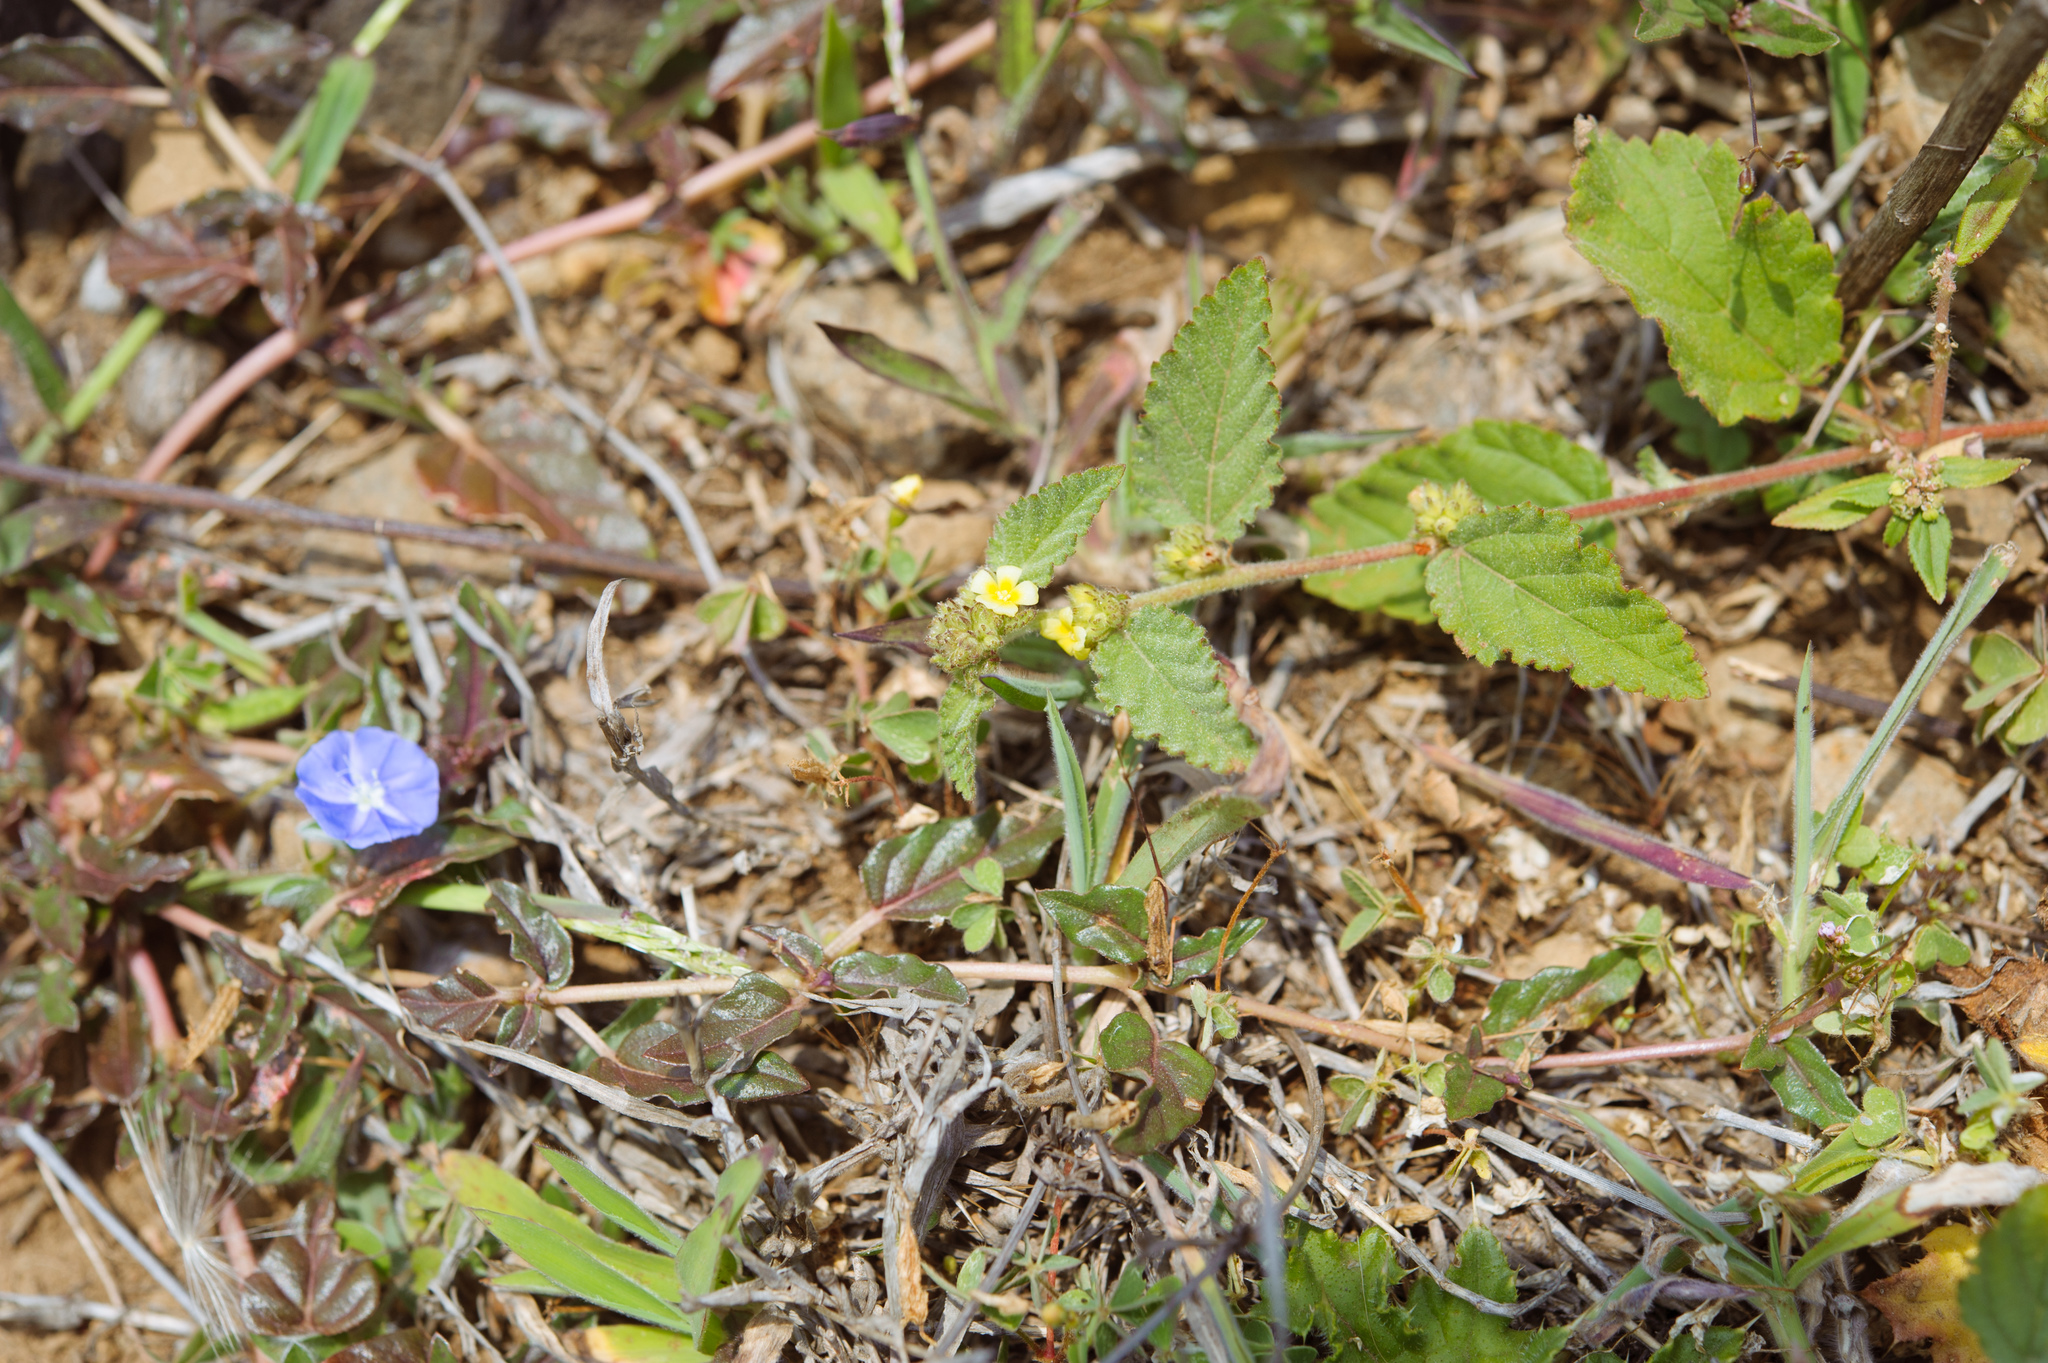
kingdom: Plantae
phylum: Tracheophyta
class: Magnoliopsida
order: Malvales
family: Malvaceae
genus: Waltheria
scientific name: Waltheria indica
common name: Leather-coat
